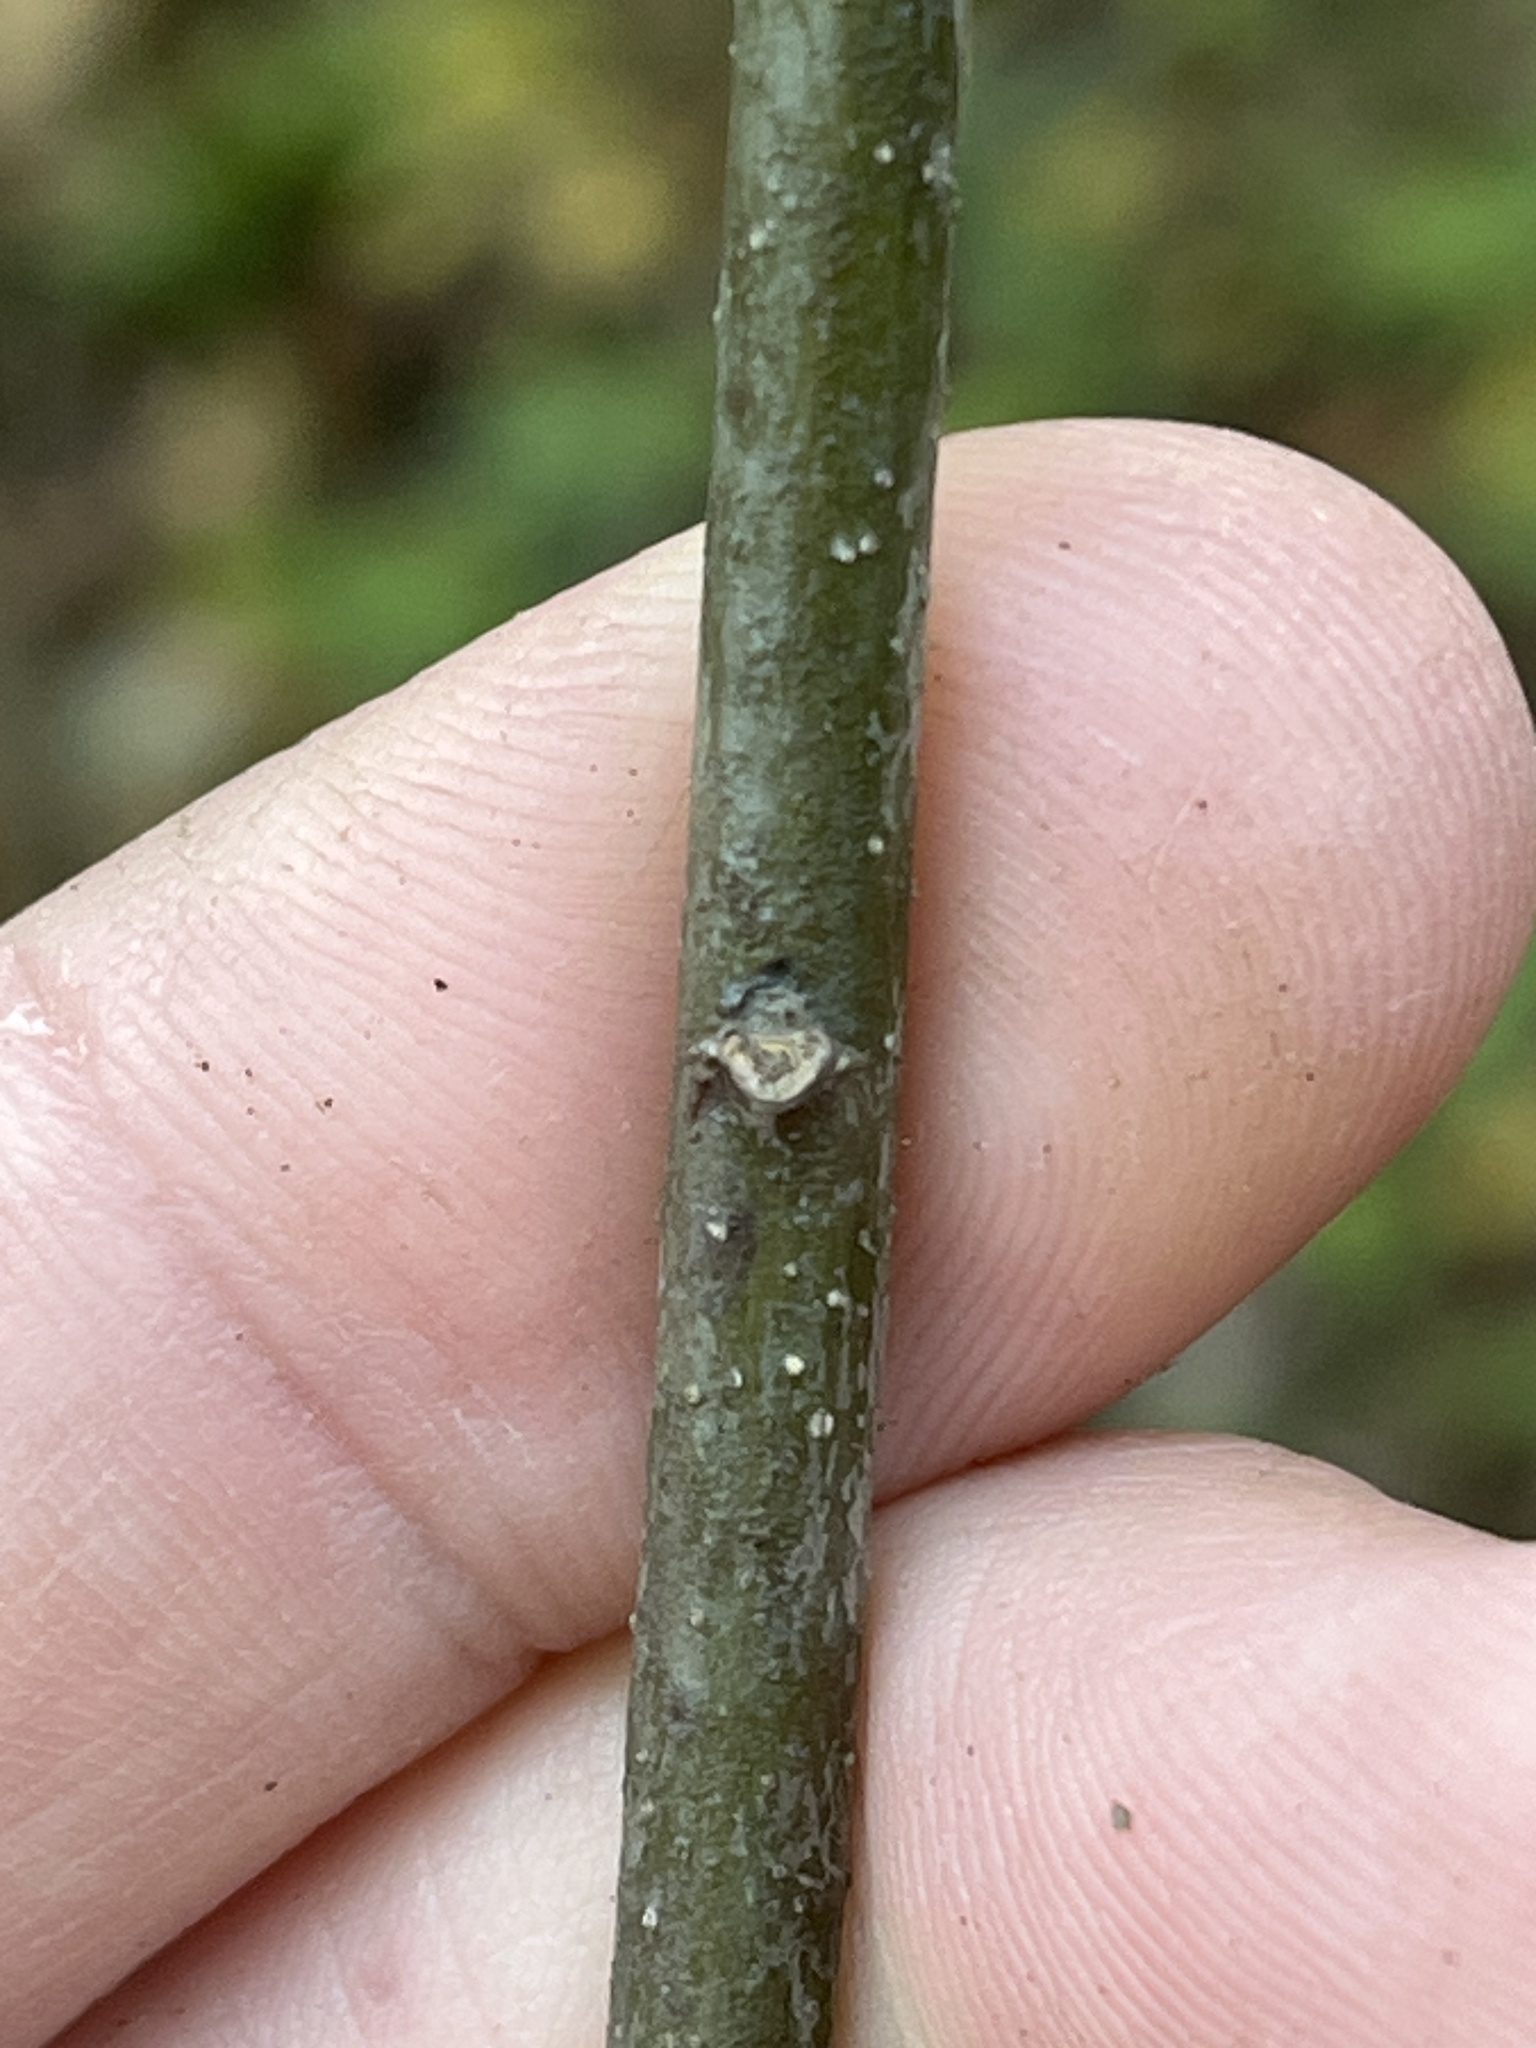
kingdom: Plantae
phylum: Tracheophyta
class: Magnoliopsida
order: Fagales
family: Fagaceae
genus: Quercus
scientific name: Quercus imbricaria
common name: Shingle oak
